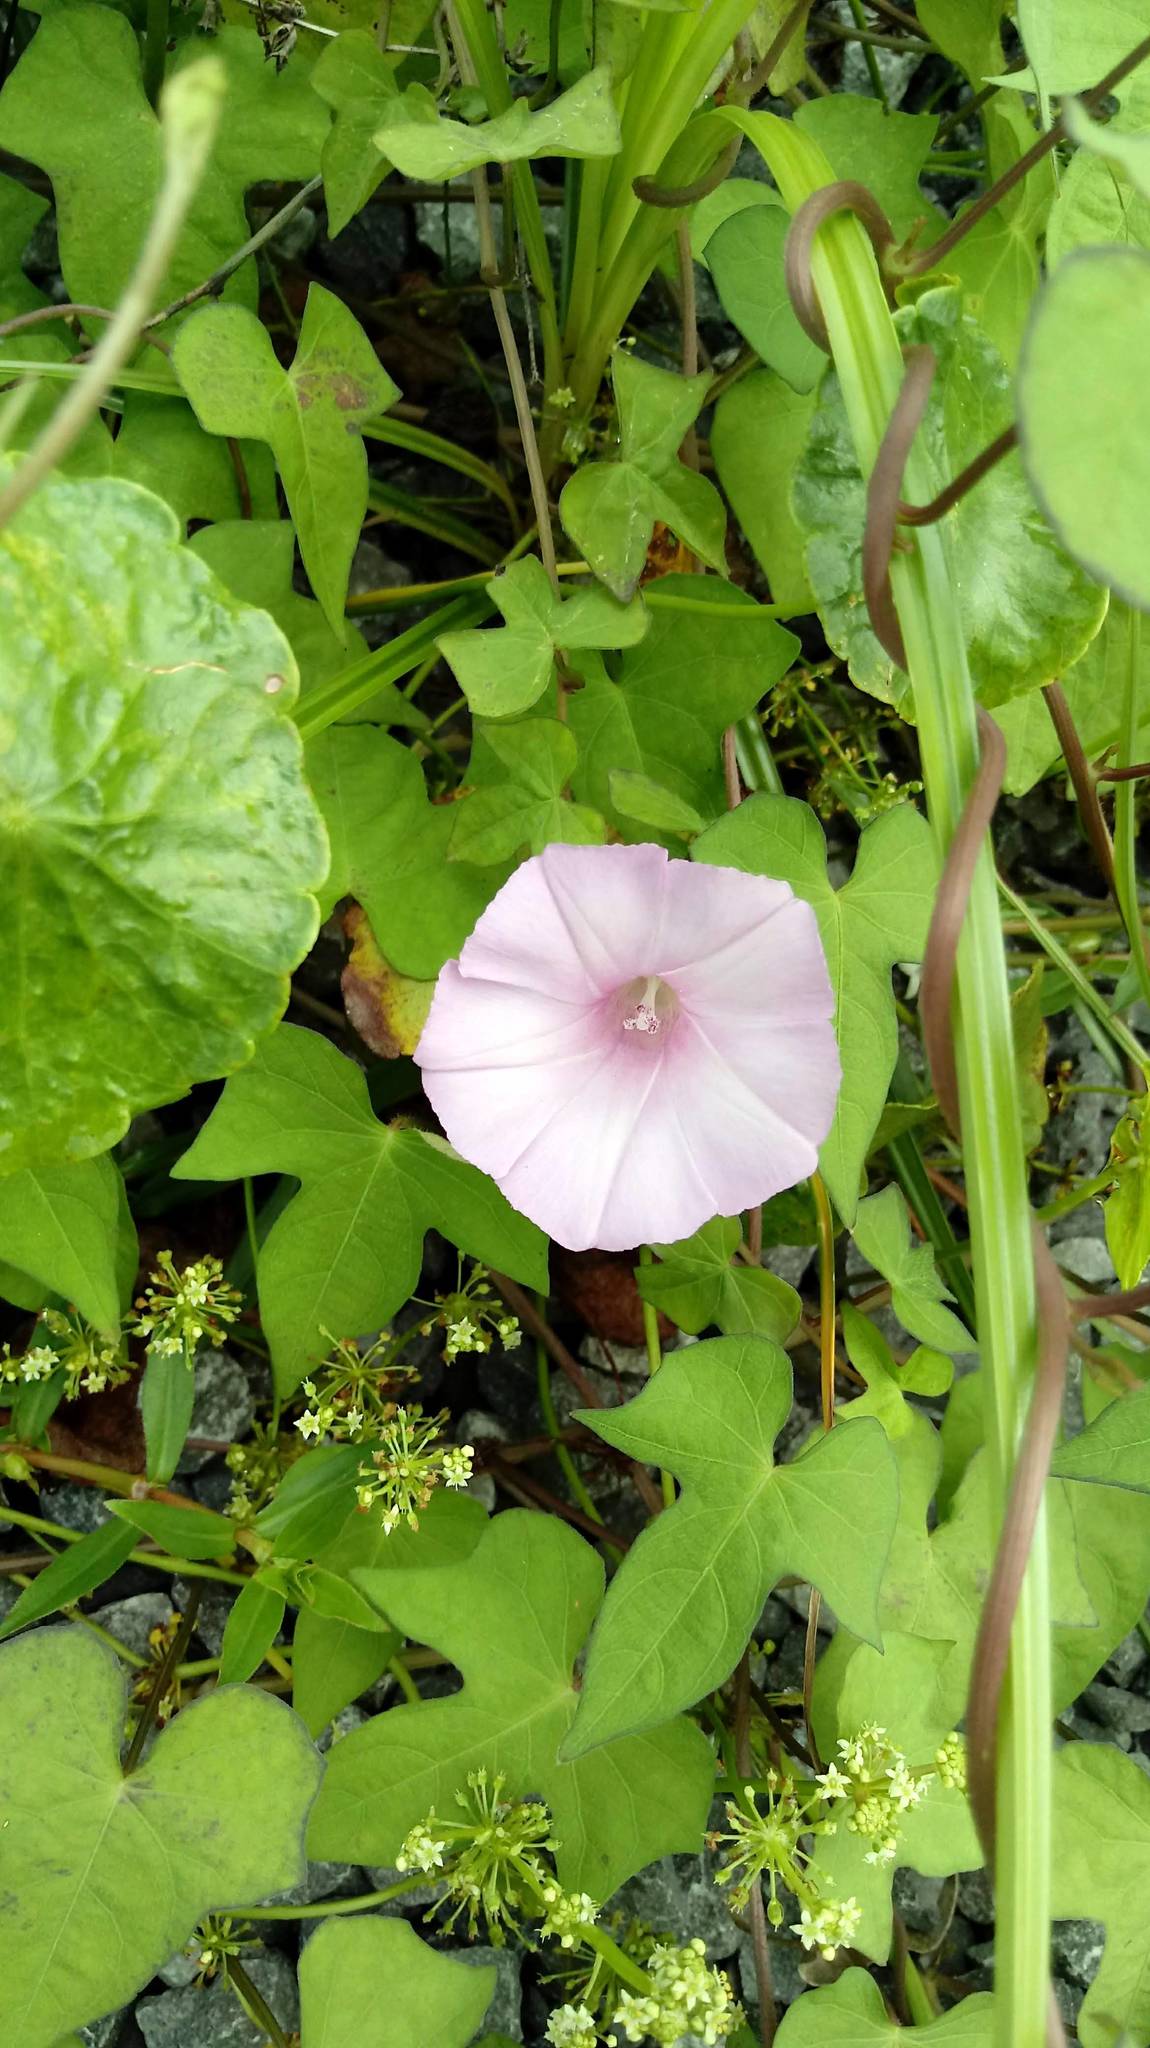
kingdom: Plantae
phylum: Tracheophyta
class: Magnoliopsida
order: Solanales
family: Convolvulaceae
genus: Ipomoea
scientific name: Ipomoea cordatotriloba
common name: Cotton morning glory
